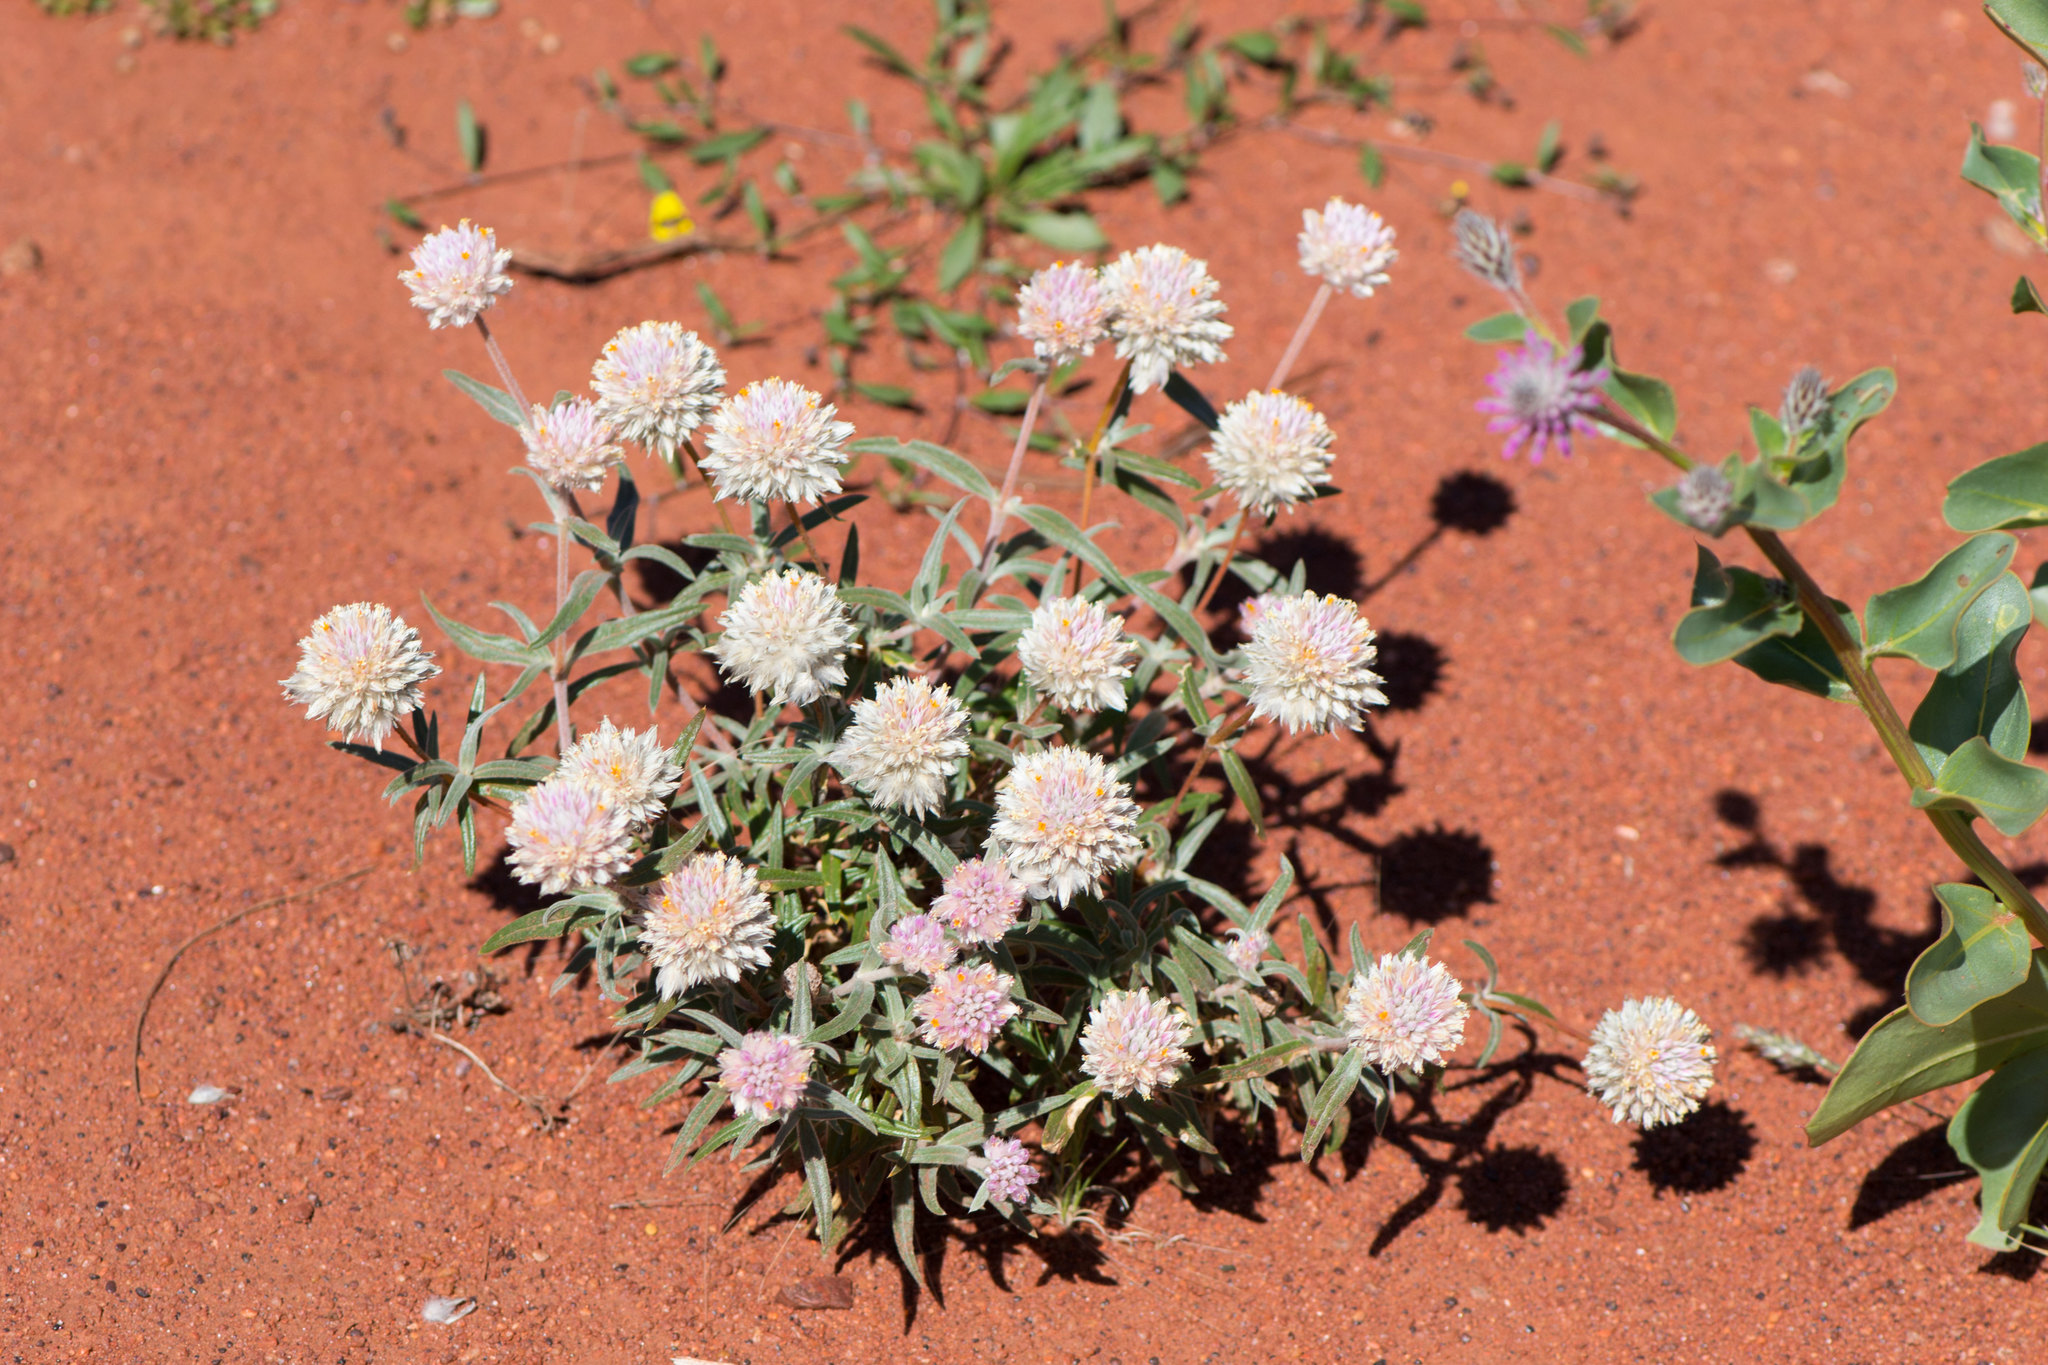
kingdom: Plantae
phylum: Tracheophyta
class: Magnoliopsida
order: Caryophyllales
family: Amaranthaceae
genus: Gomphrena
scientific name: Gomphrena kanisii
